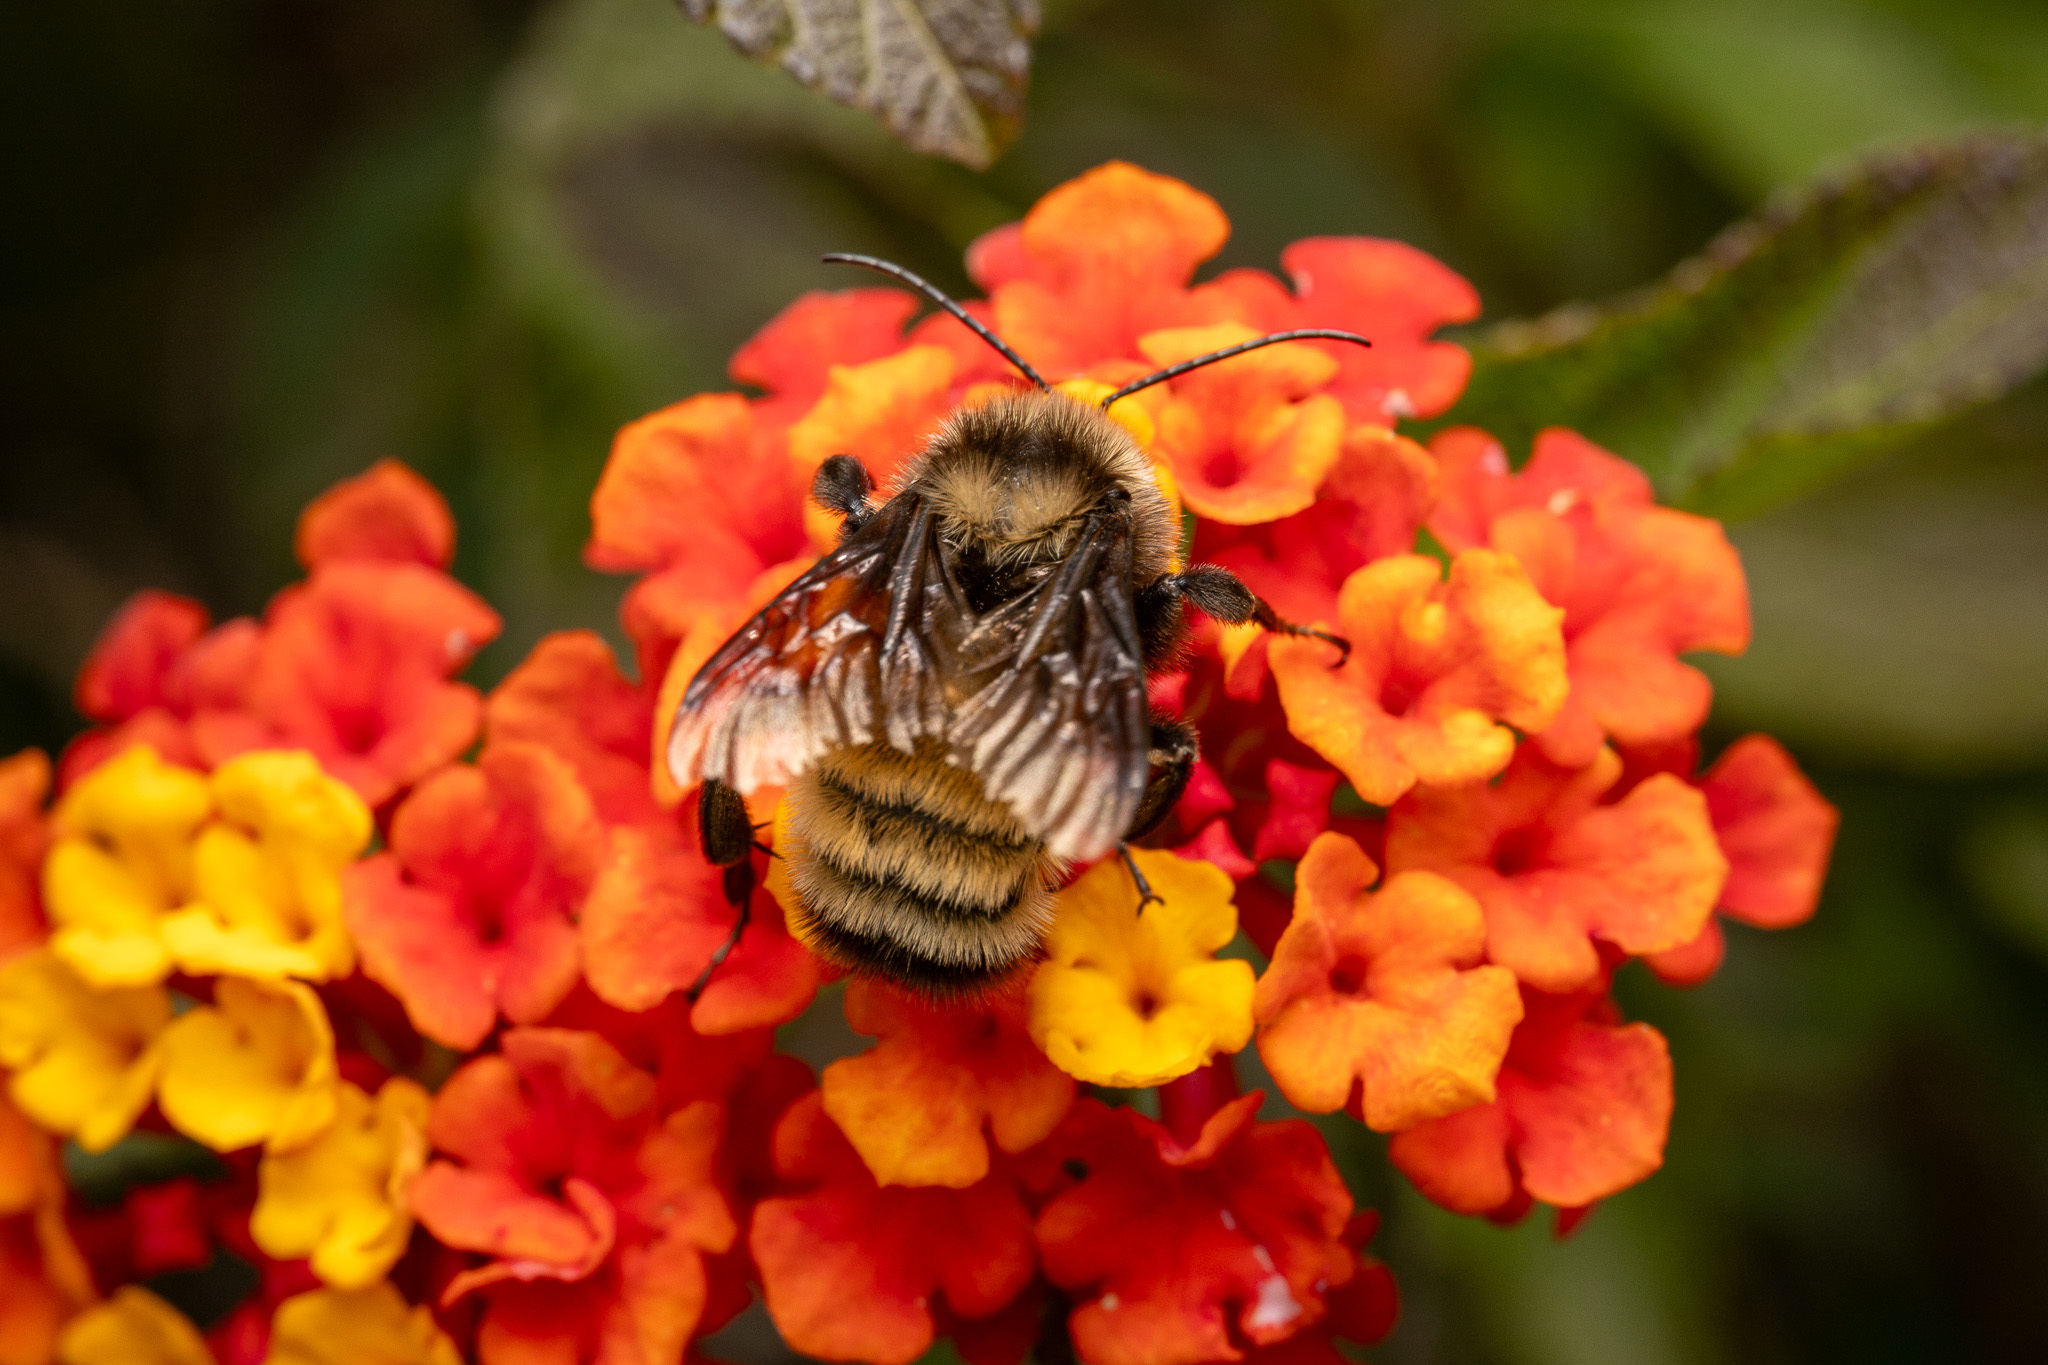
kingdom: Animalia
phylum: Arthropoda
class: Insecta
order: Hymenoptera
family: Apidae
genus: Bombus
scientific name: Bombus sonorus
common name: Sonoran bumble bee
